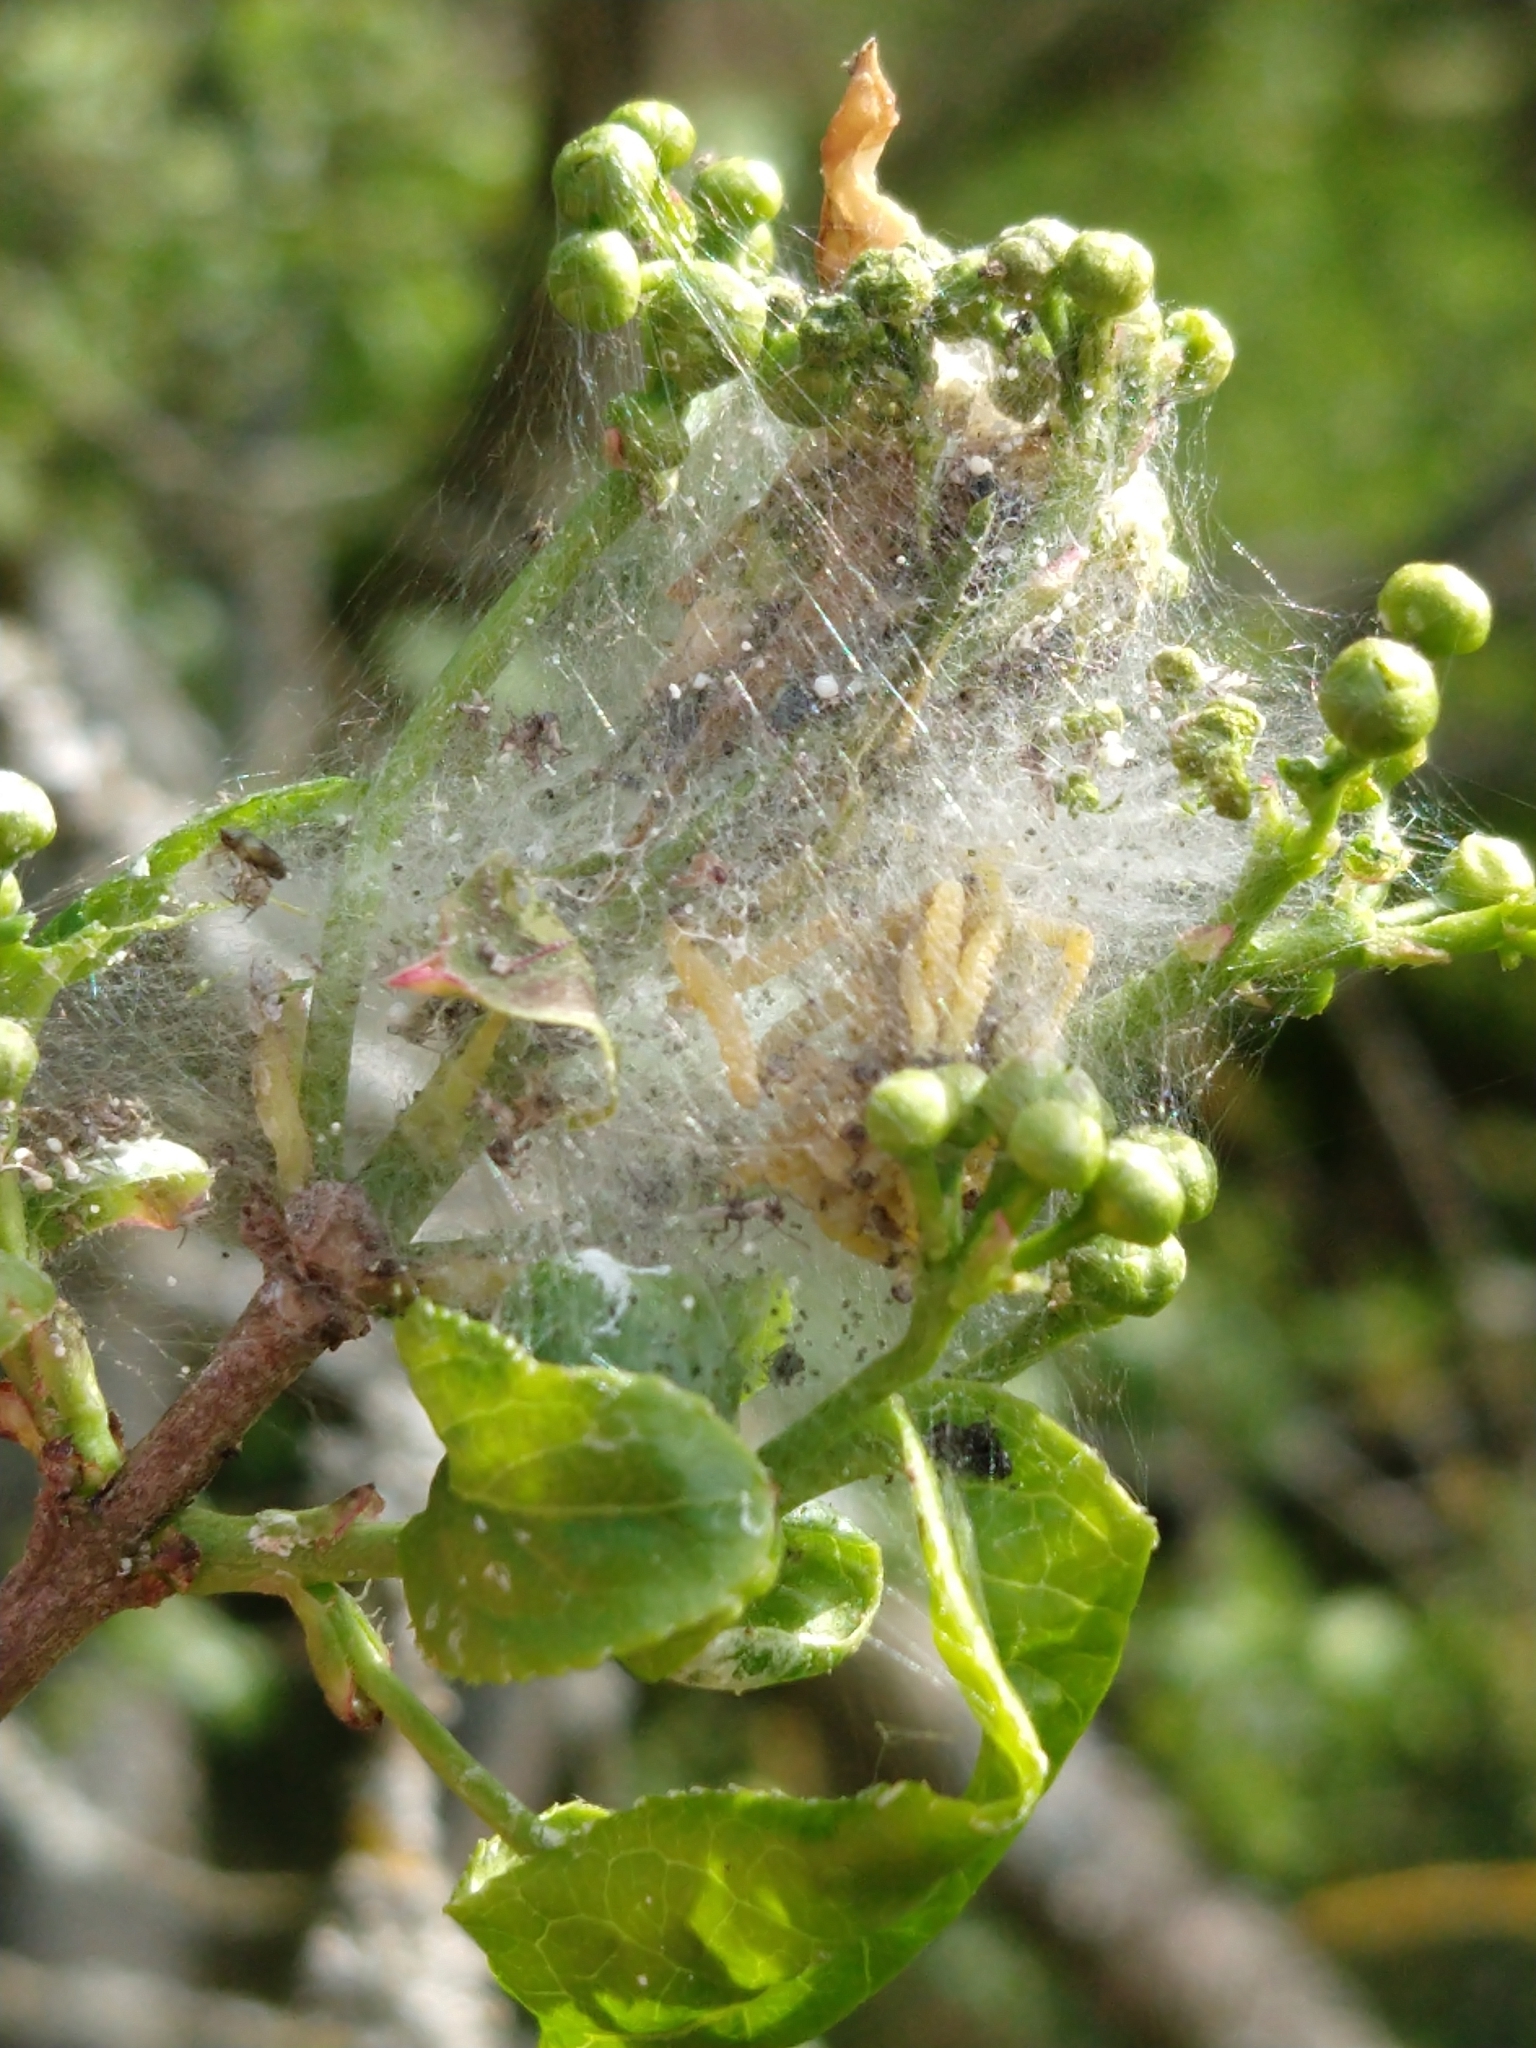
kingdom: Animalia
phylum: Arthropoda
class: Insecta
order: Lepidoptera
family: Yponomeutidae
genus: Yponomeuta
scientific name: Yponomeuta cagnagellus
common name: Spindle ermine
